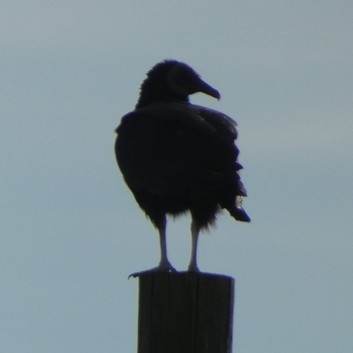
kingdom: Animalia
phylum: Chordata
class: Aves
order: Accipitriformes
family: Cathartidae
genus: Coragyps
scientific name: Coragyps atratus
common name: Black vulture
